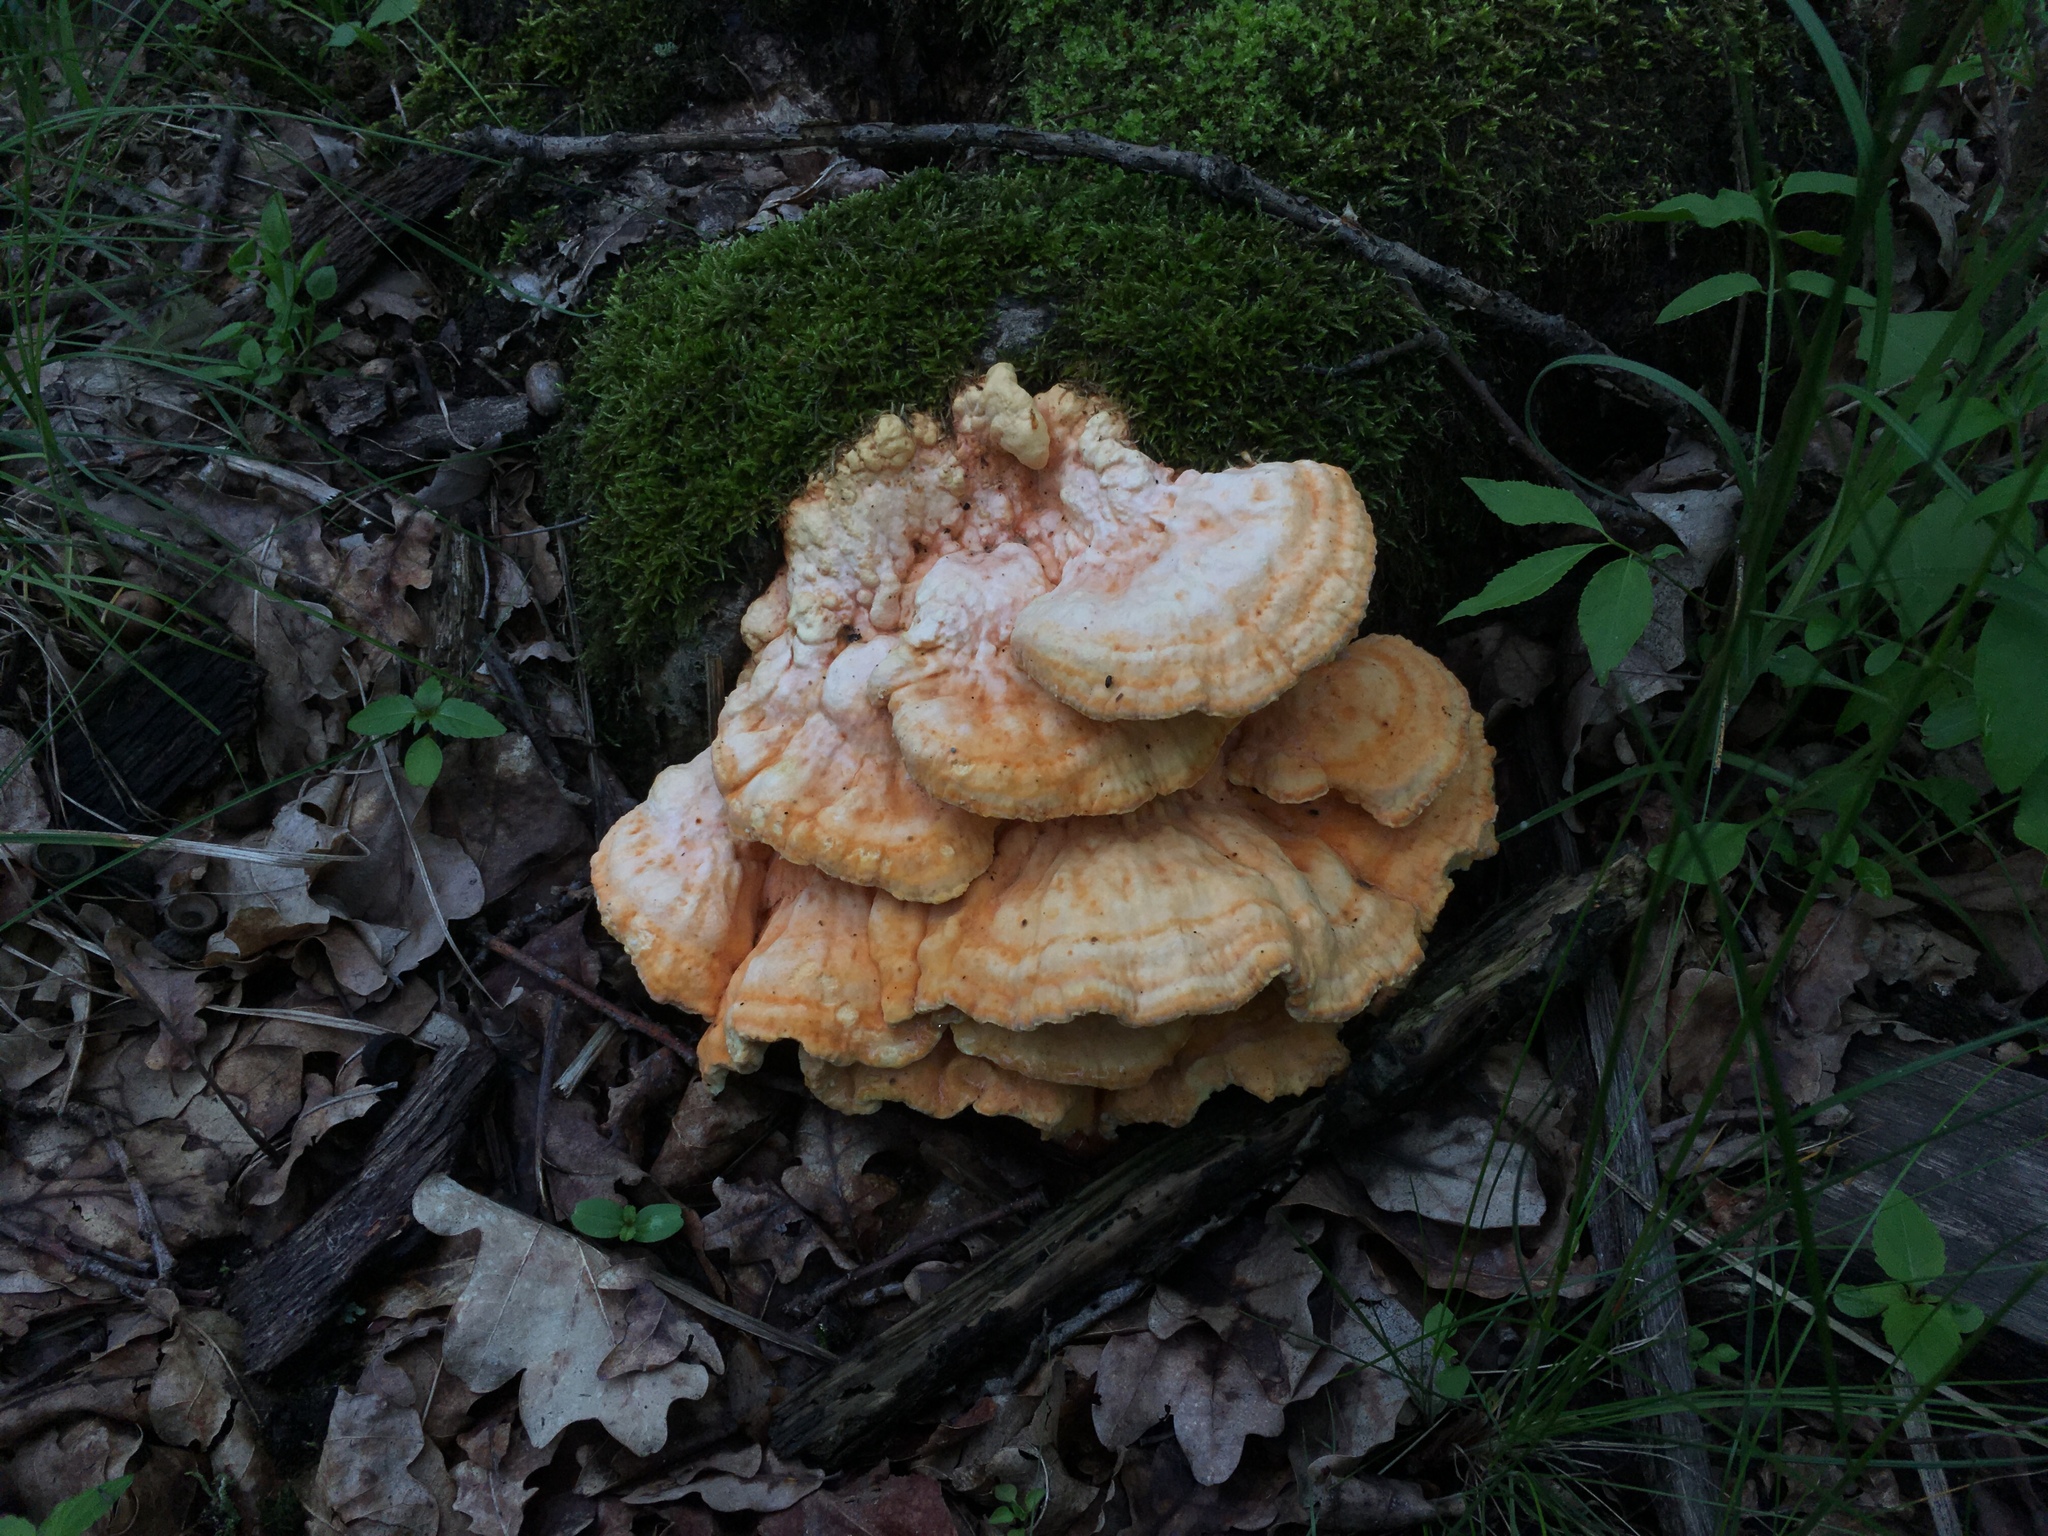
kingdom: Fungi
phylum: Basidiomycota
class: Agaricomycetes
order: Polyporales
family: Laetiporaceae
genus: Laetiporus
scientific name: Laetiporus sulphureus
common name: Chicken of the woods
